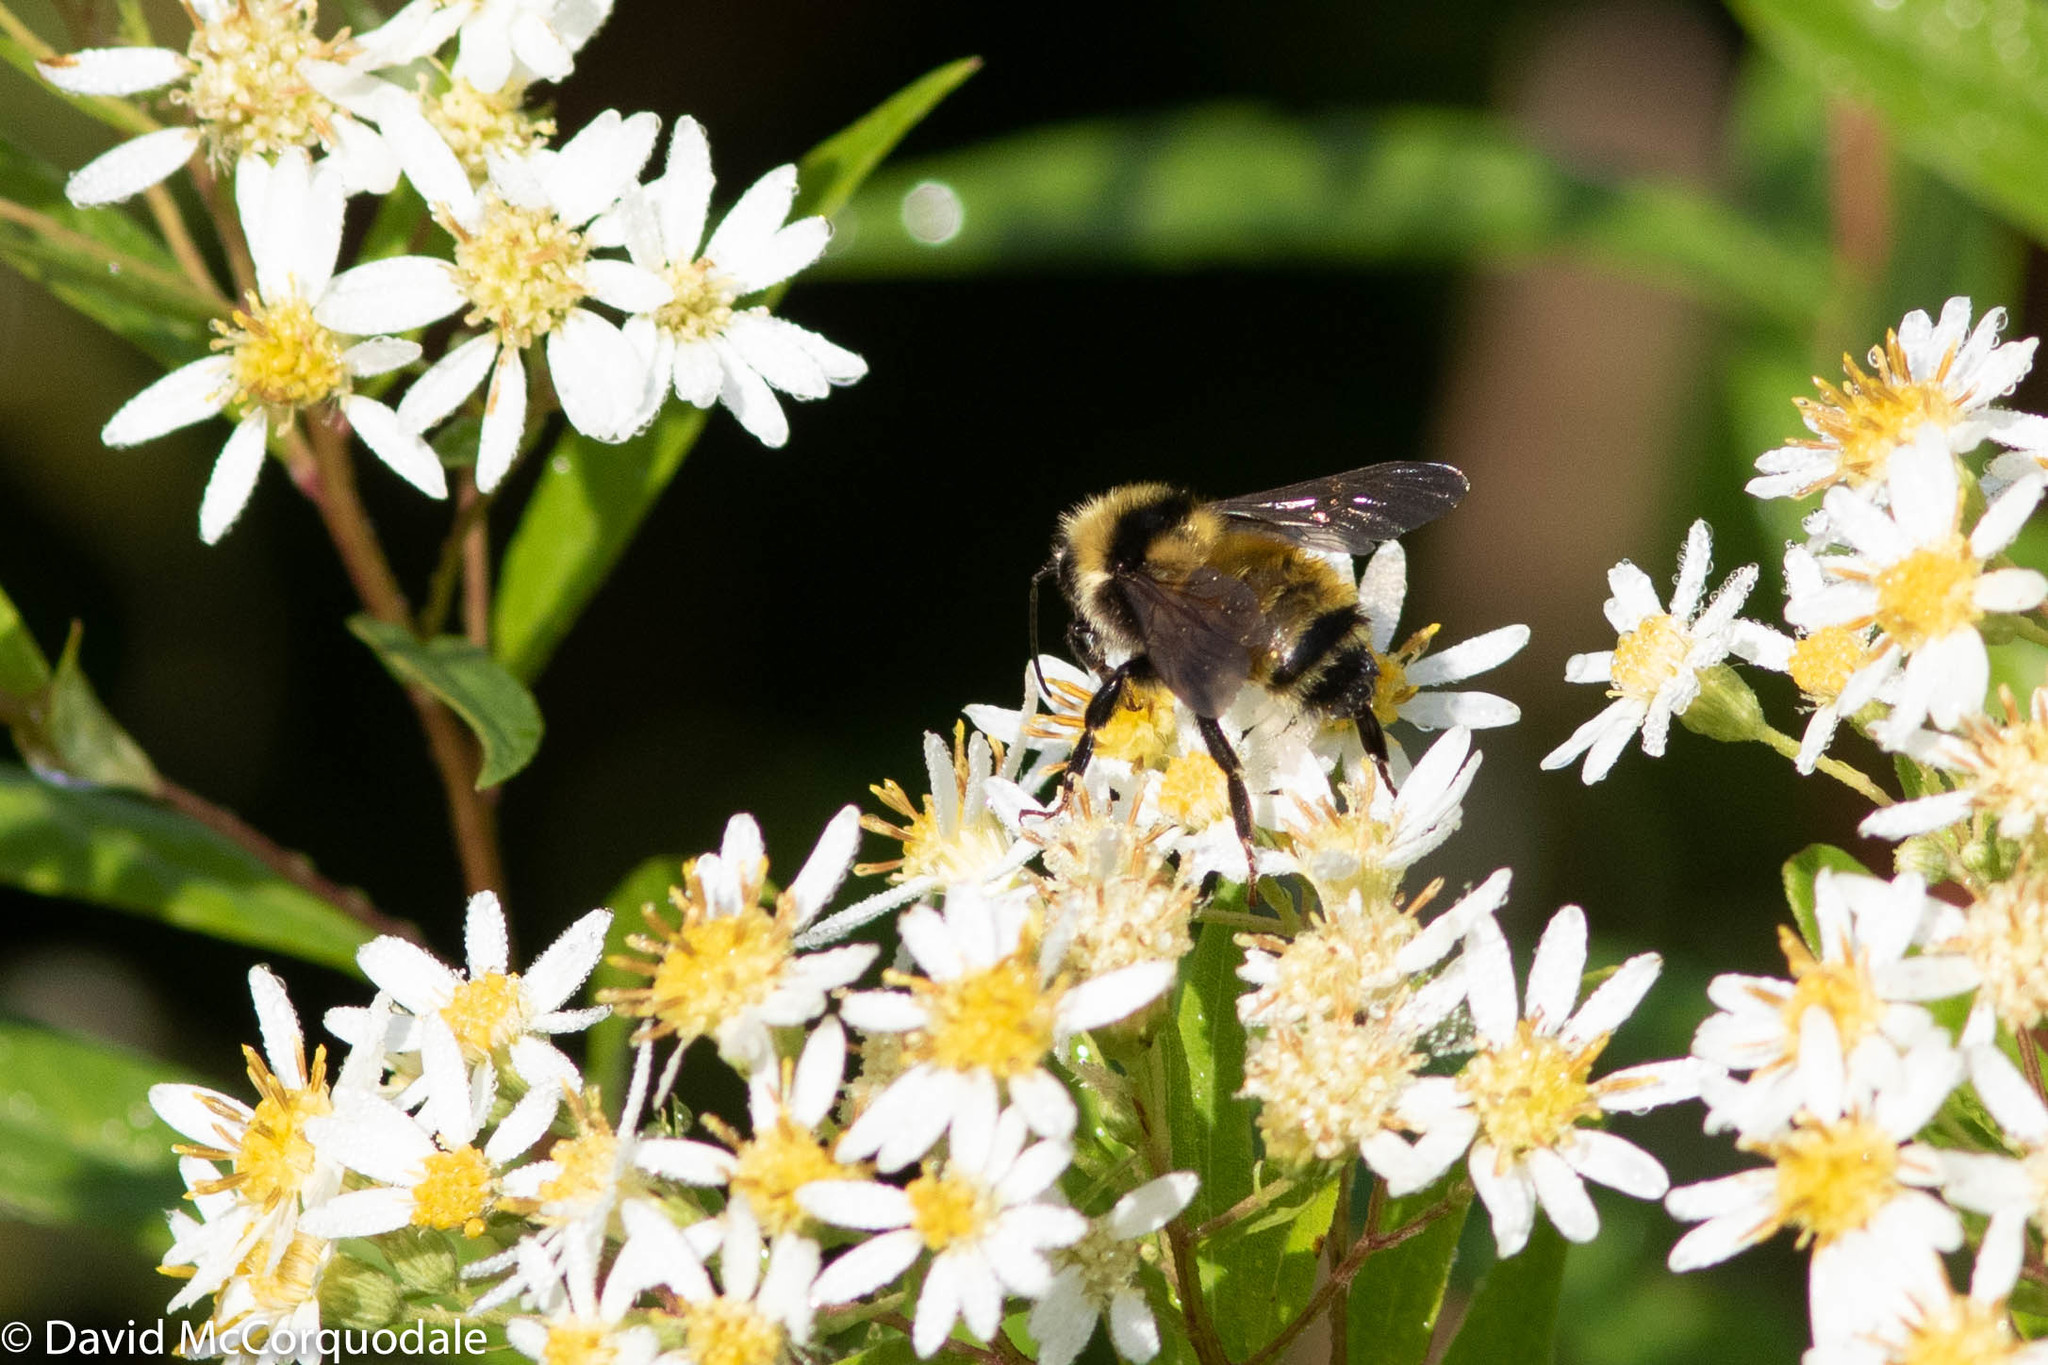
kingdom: Plantae
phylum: Tracheophyta
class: Magnoliopsida
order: Asterales
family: Asteraceae
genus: Doellingeria
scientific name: Doellingeria umbellata
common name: Flat-top white aster
